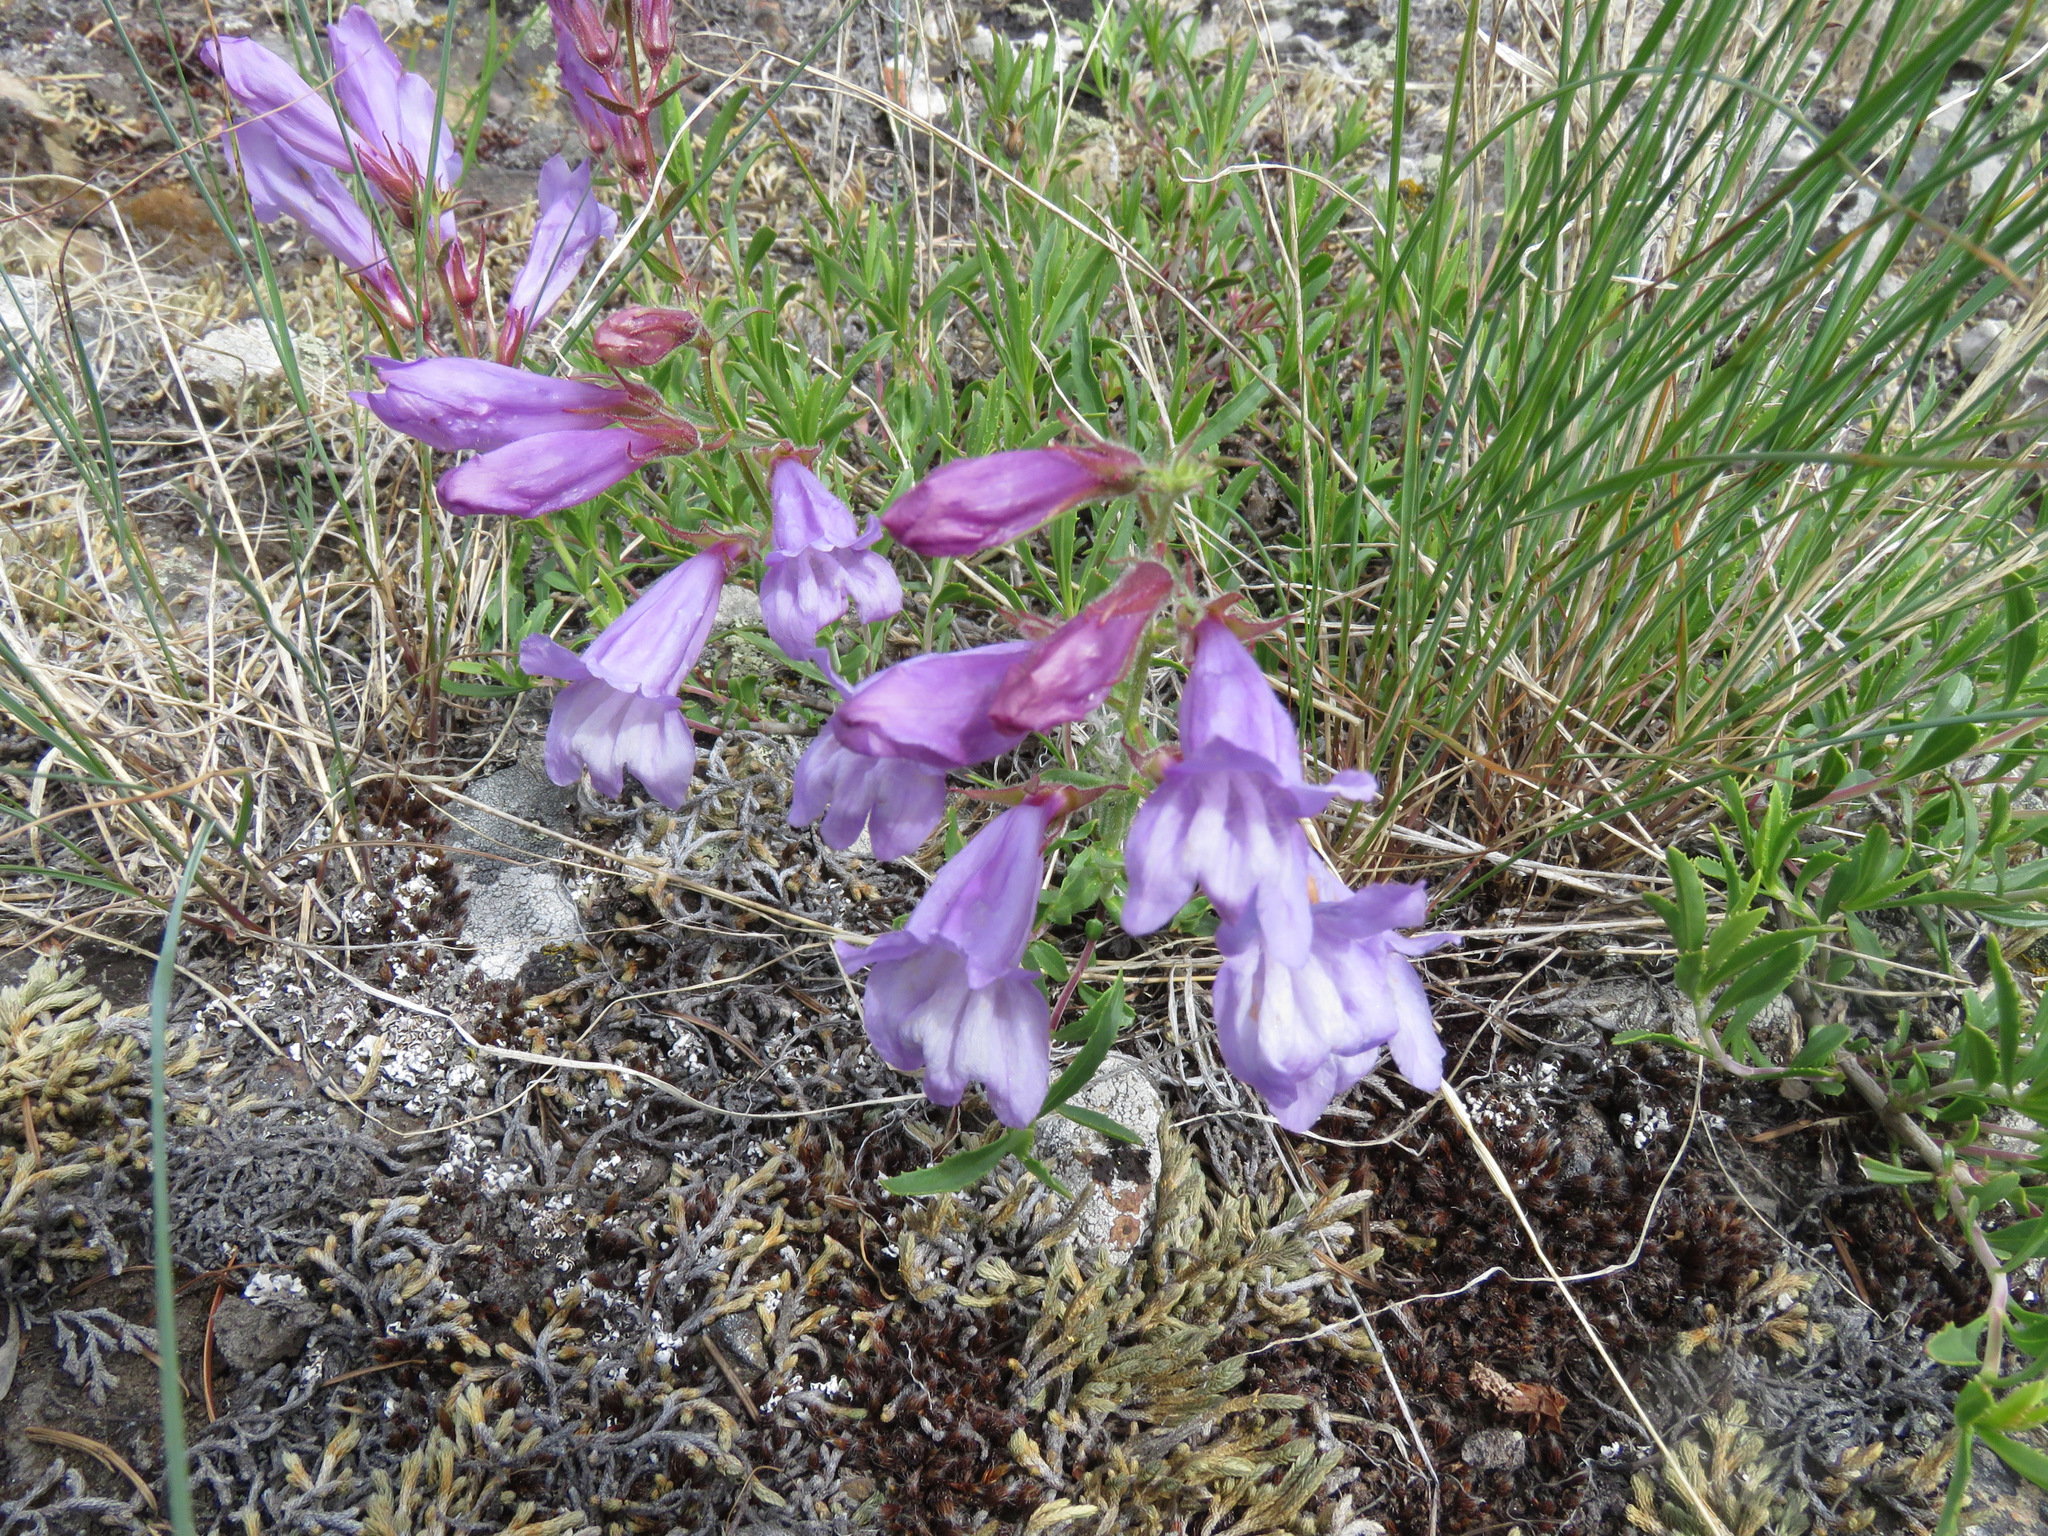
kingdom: Plantae
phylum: Tracheophyta
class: Magnoliopsida
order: Lamiales
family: Plantaginaceae
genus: Penstemon
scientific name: Penstemon fruticosus
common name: Bush penstemon
